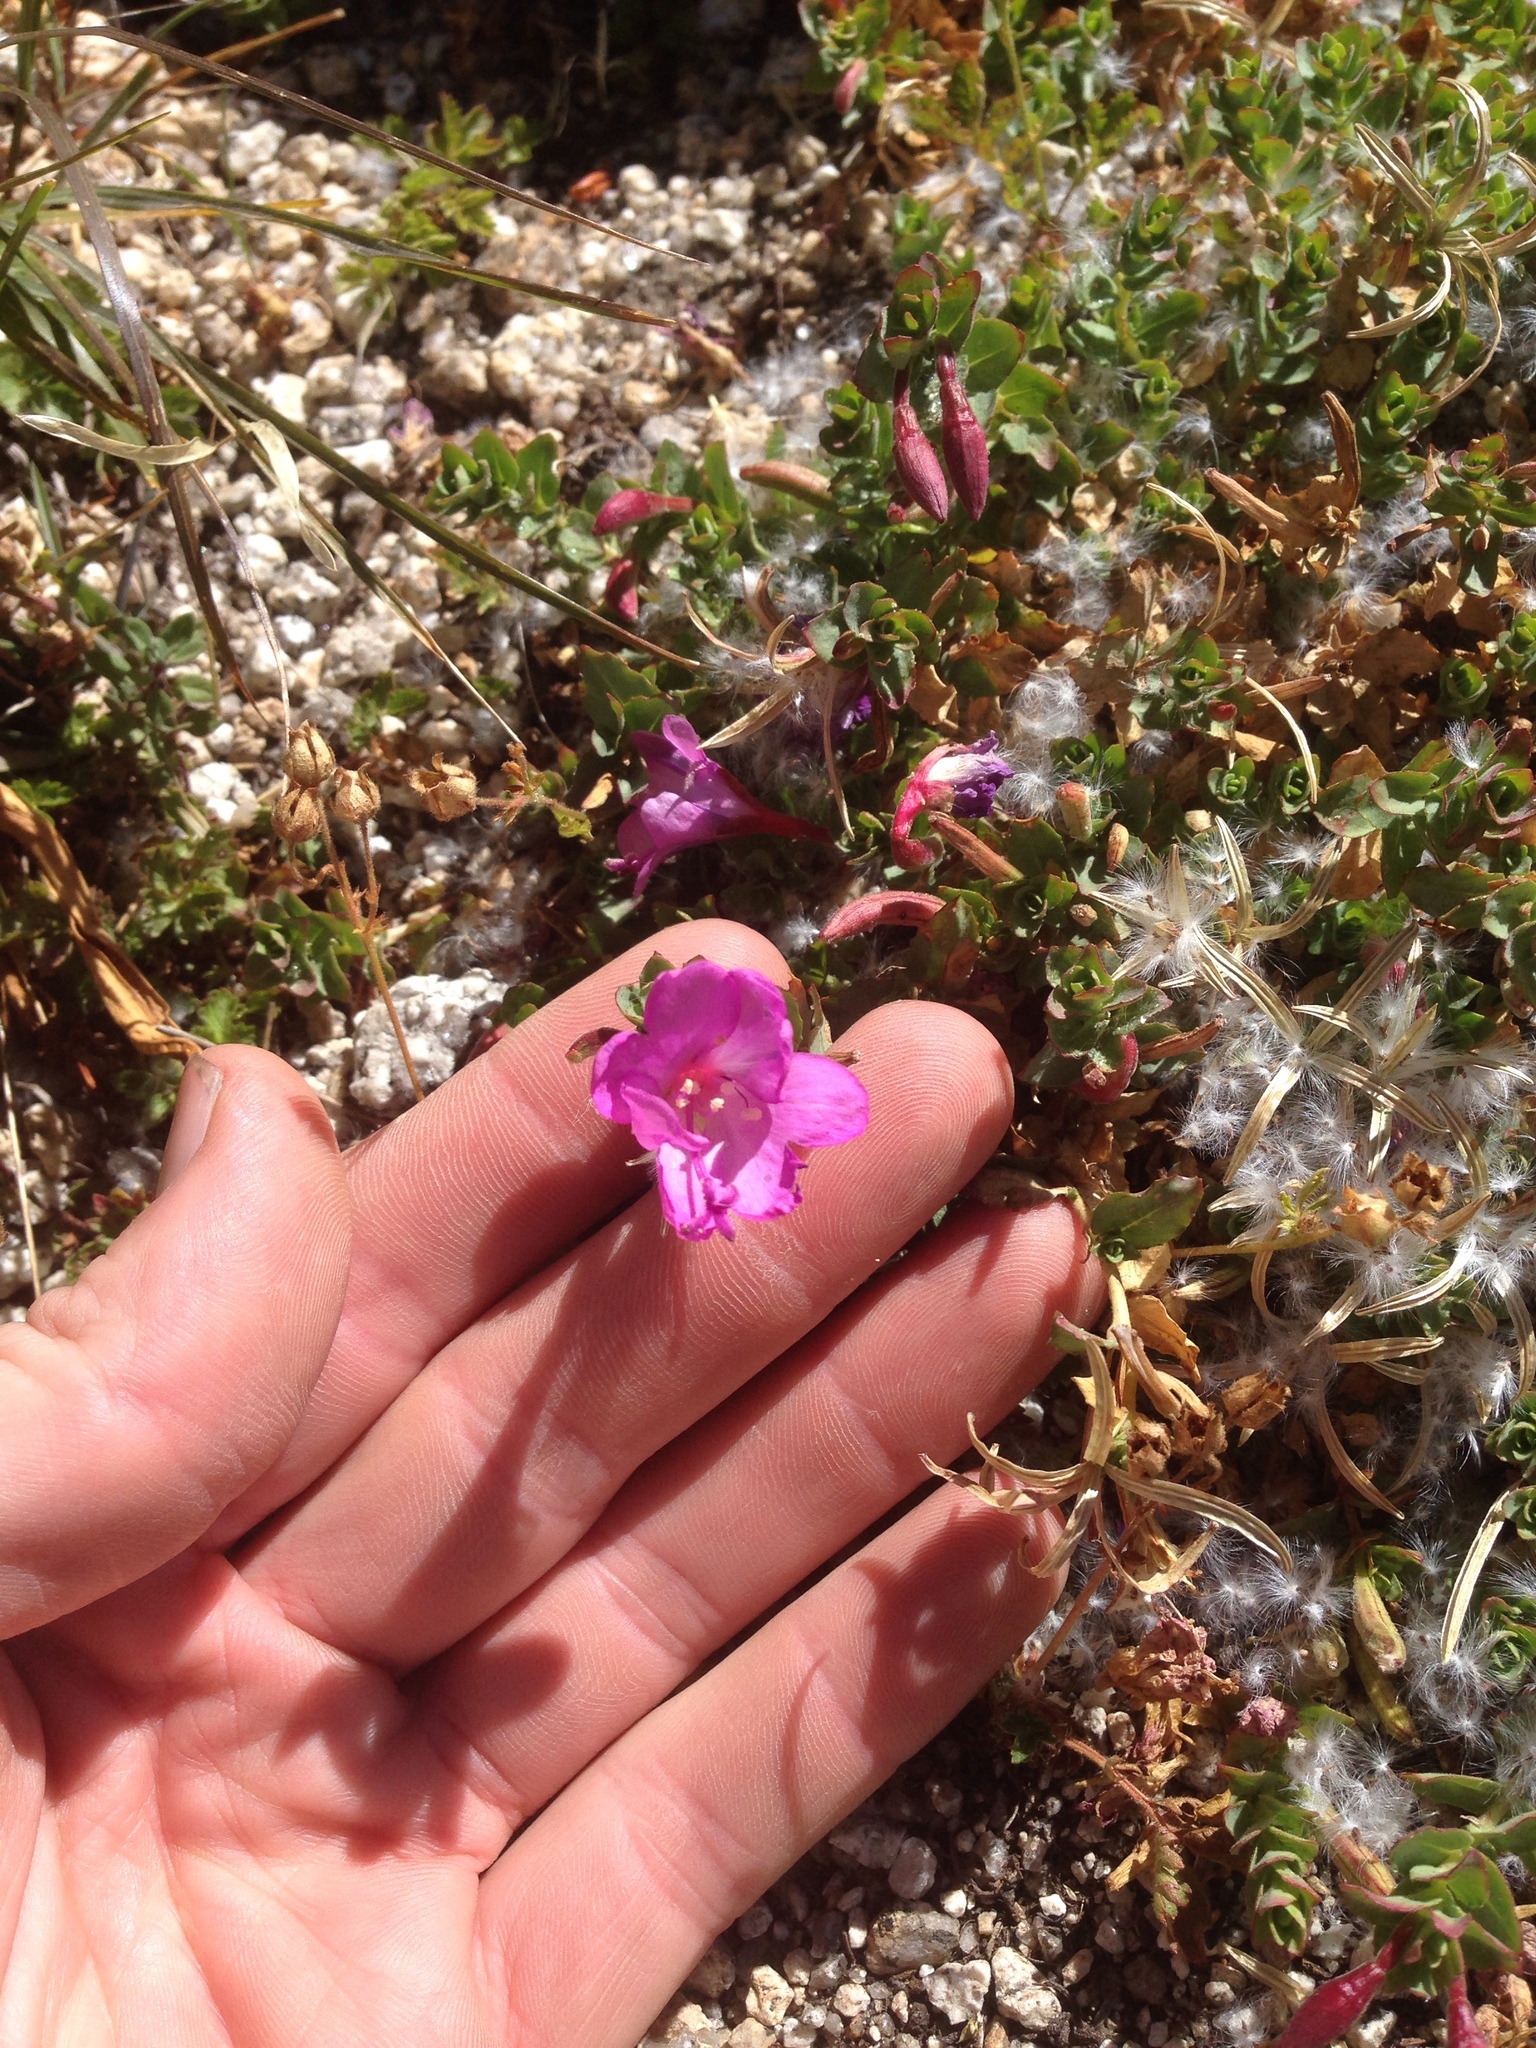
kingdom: Plantae
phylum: Tracheophyta
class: Magnoliopsida
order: Myrtales
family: Onagraceae
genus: Epilobium
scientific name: Epilobium obcordatum
